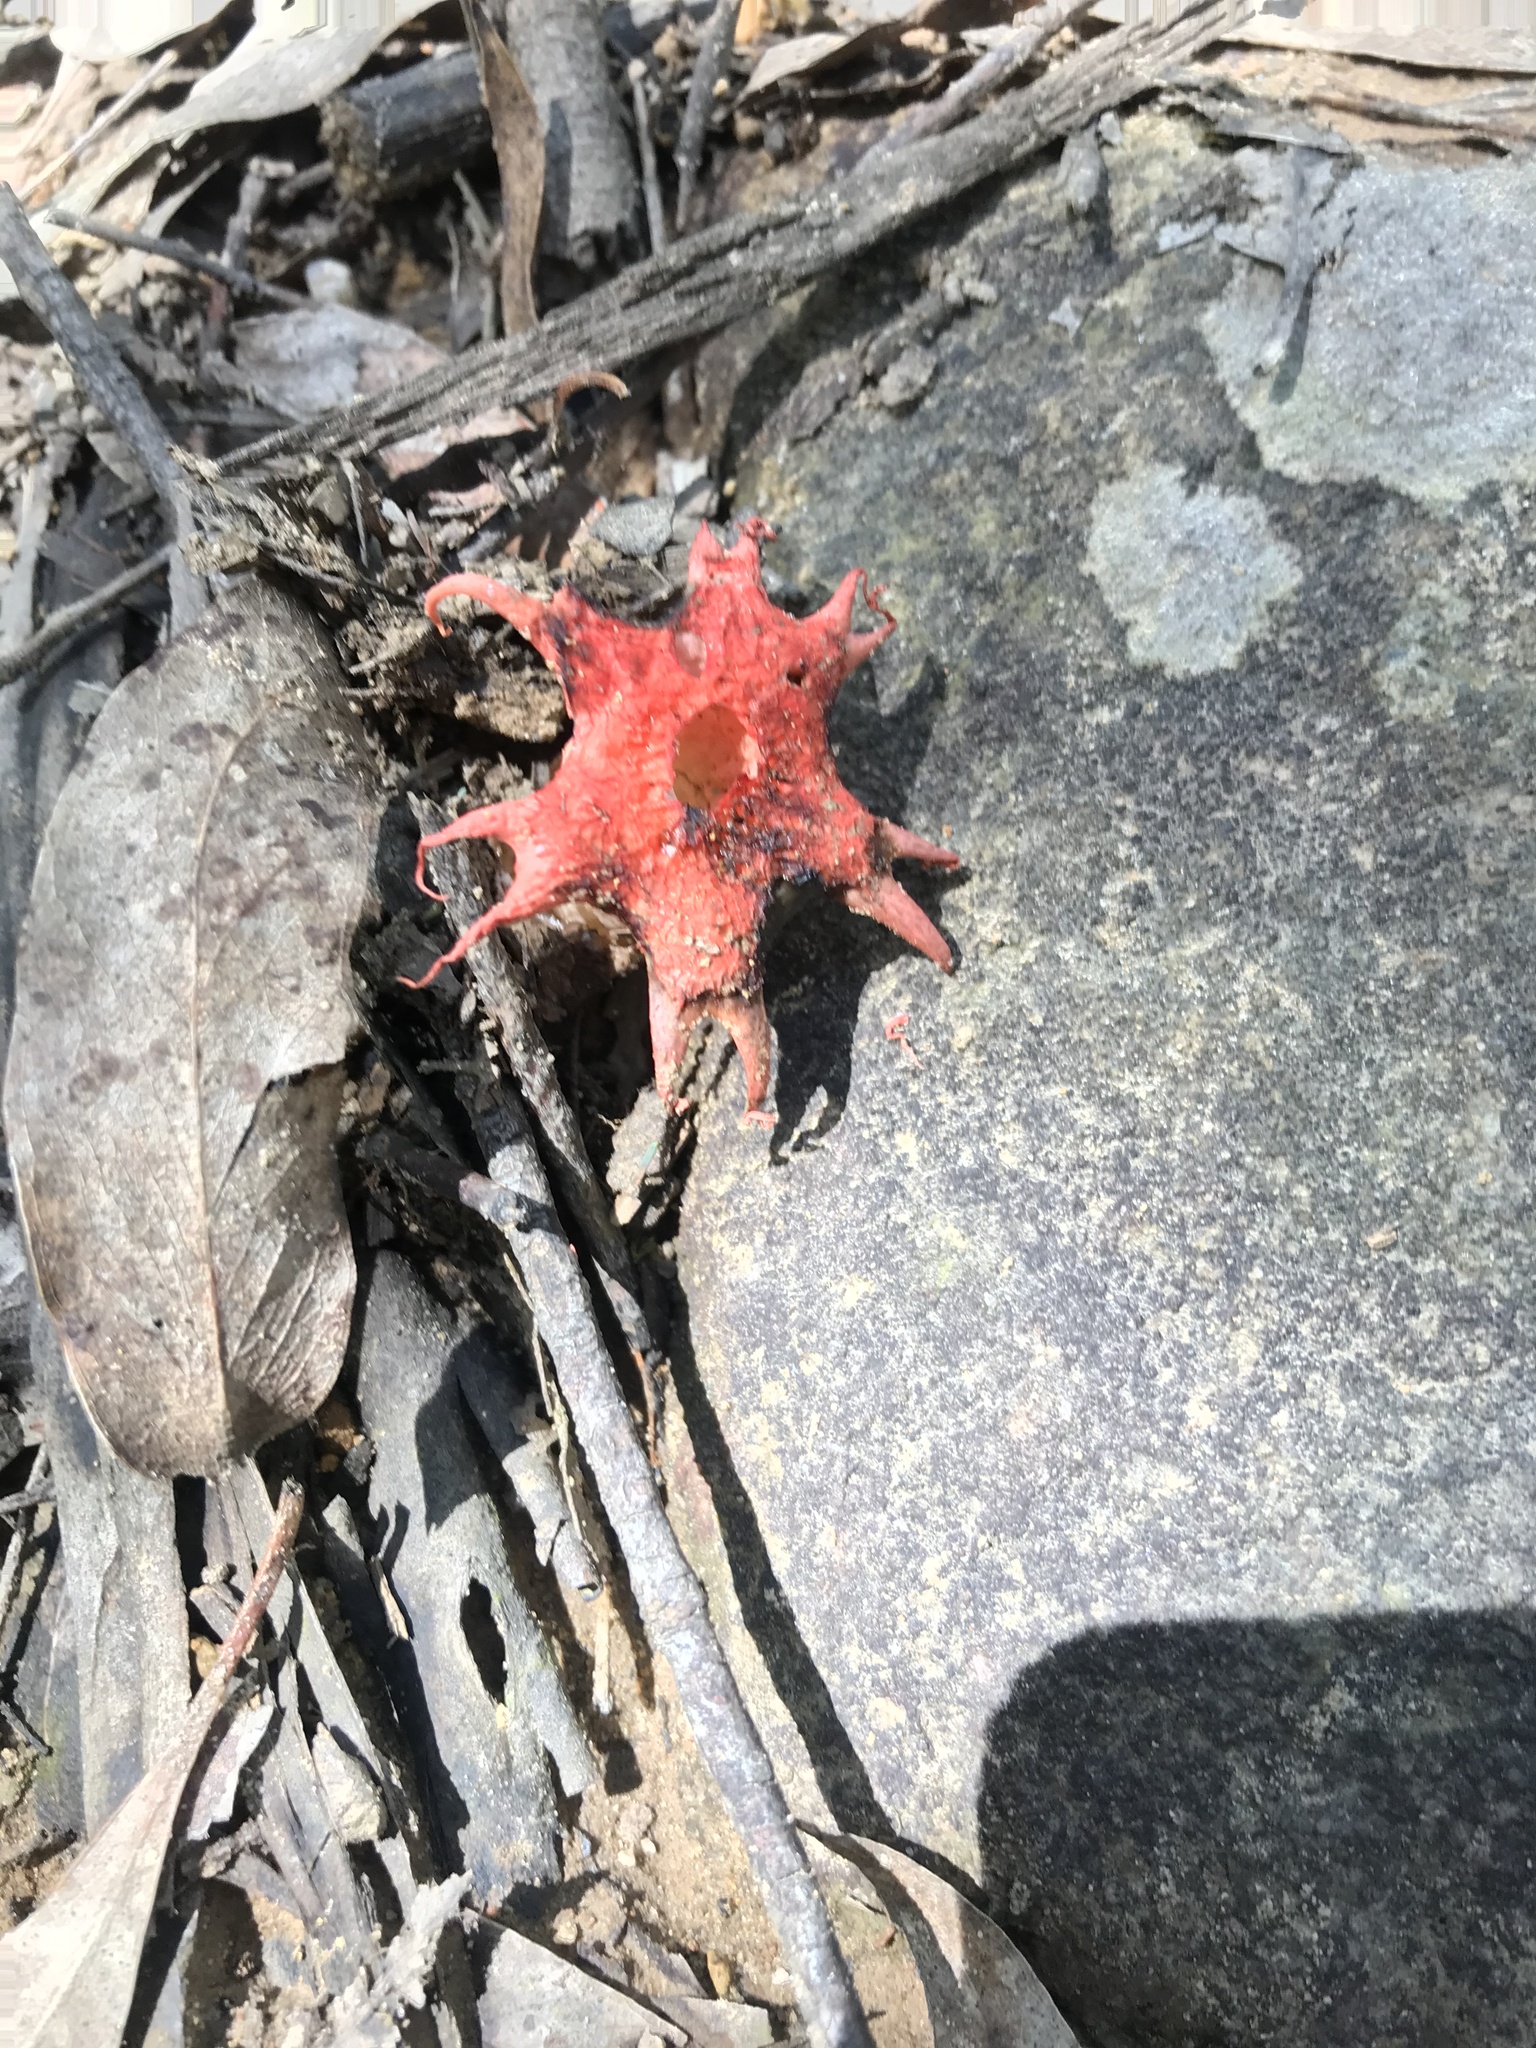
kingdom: Fungi
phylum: Basidiomycota
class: Agaricomycetes
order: Phallales
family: Phallaceae
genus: Aseroe
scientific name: Aseroe rubra
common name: Starfish fungus
